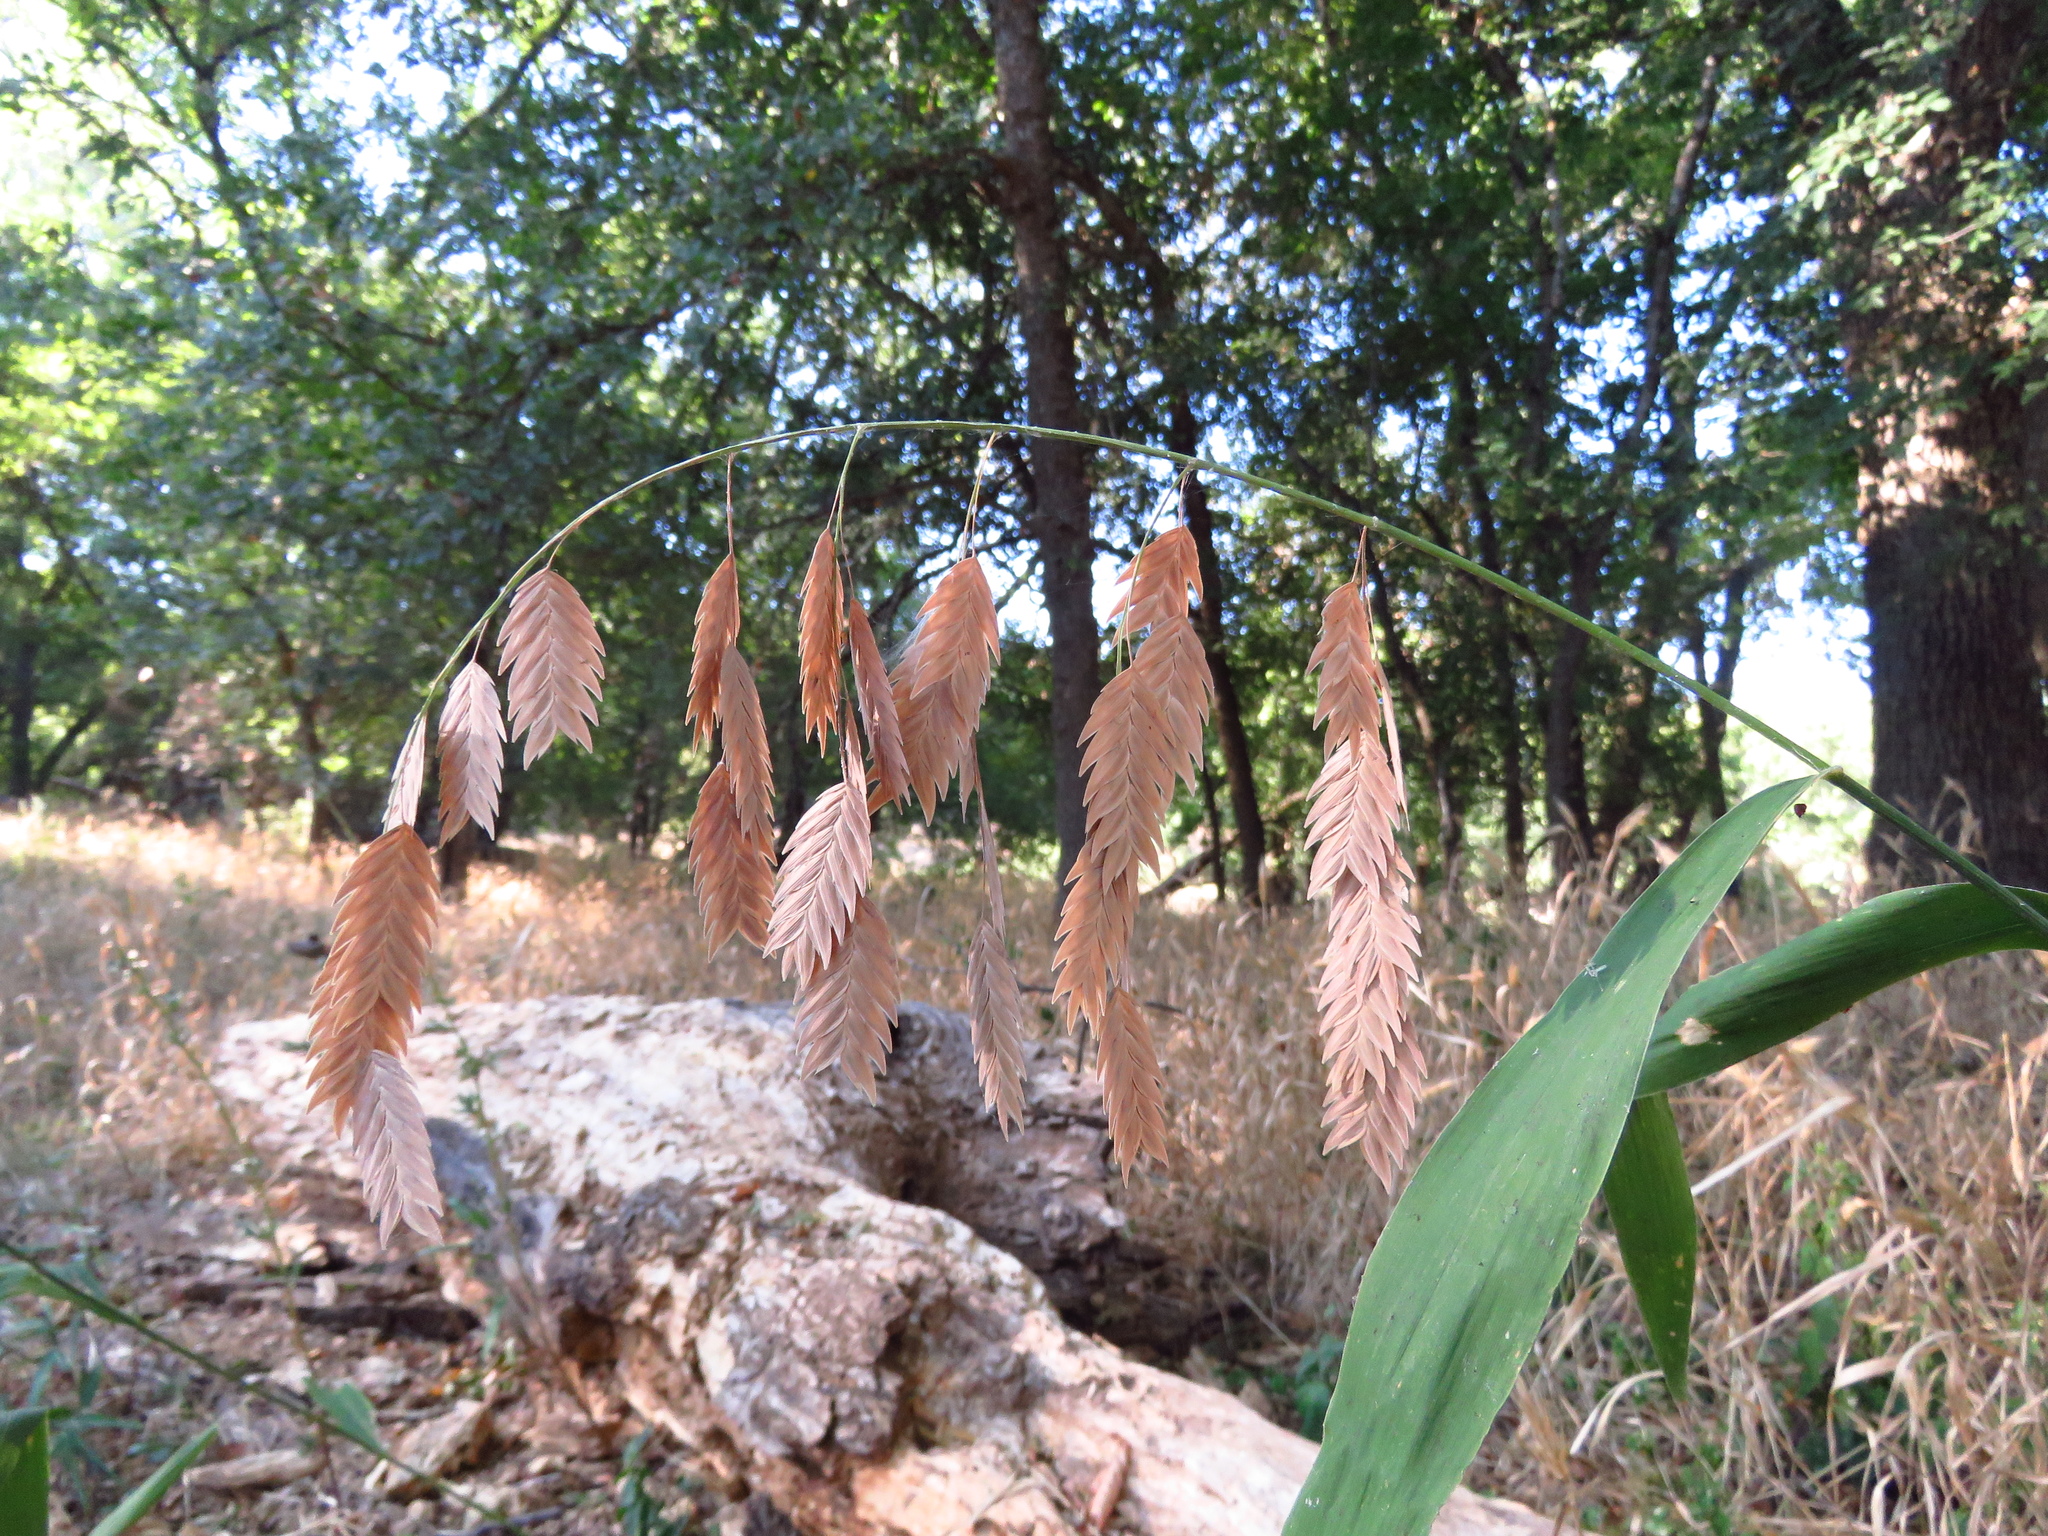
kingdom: Plantae
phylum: Tracheophyta
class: Liliopsida
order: Poales
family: Poaceae
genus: Chasmanthium
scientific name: Chasmanthium latifolium
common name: Broad-leaved chasmanthium
